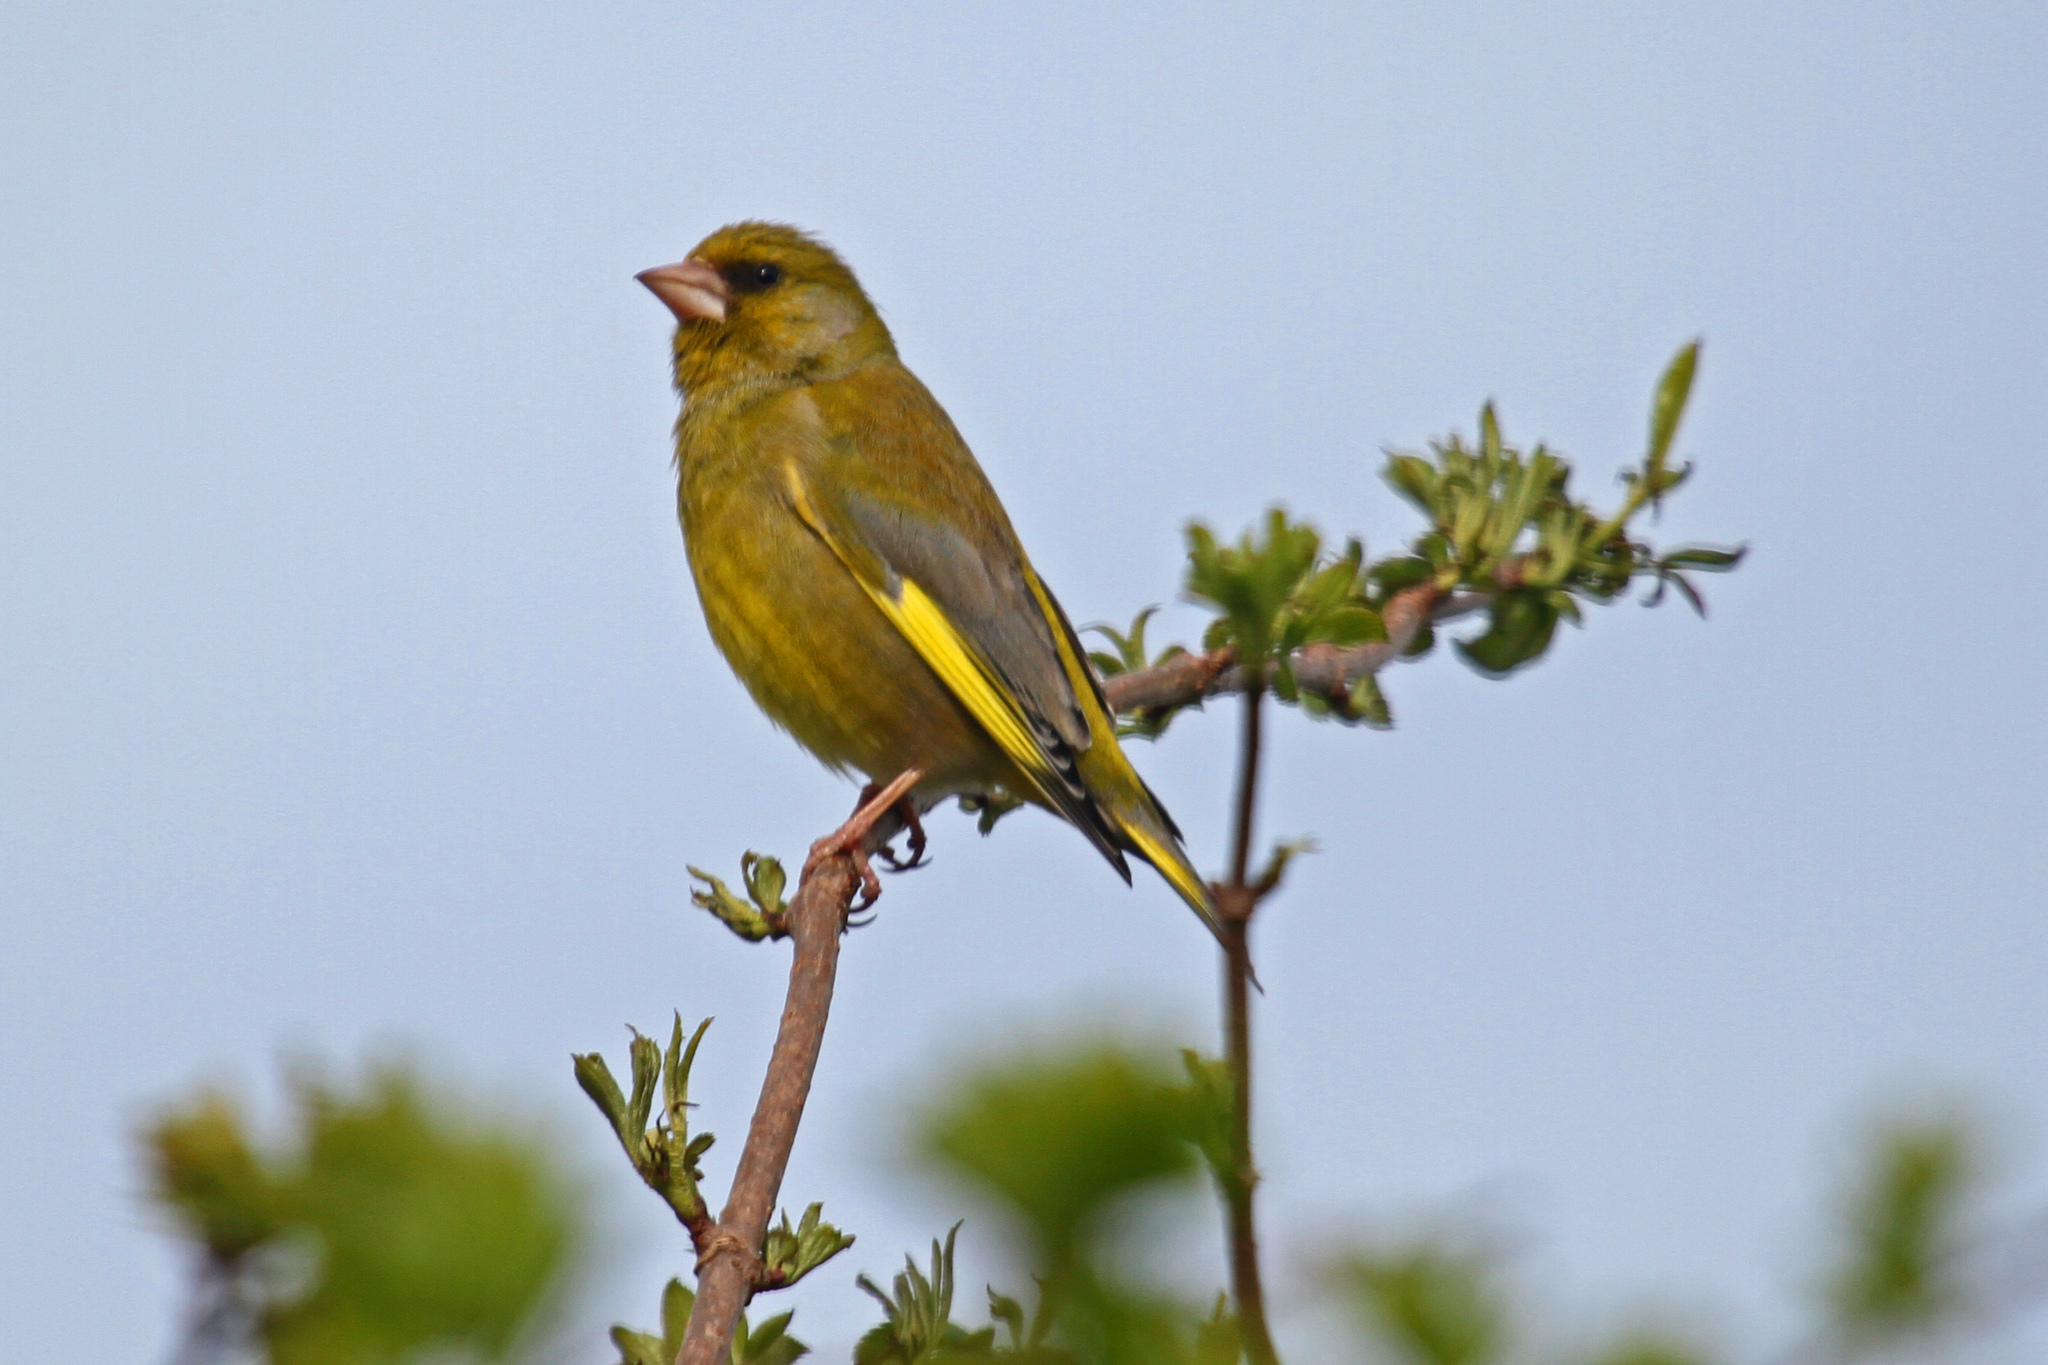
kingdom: Plantae
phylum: Tracheophyta
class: Liliopsida
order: Poales
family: Poaceae
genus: Chloris
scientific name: Chloris chloris
